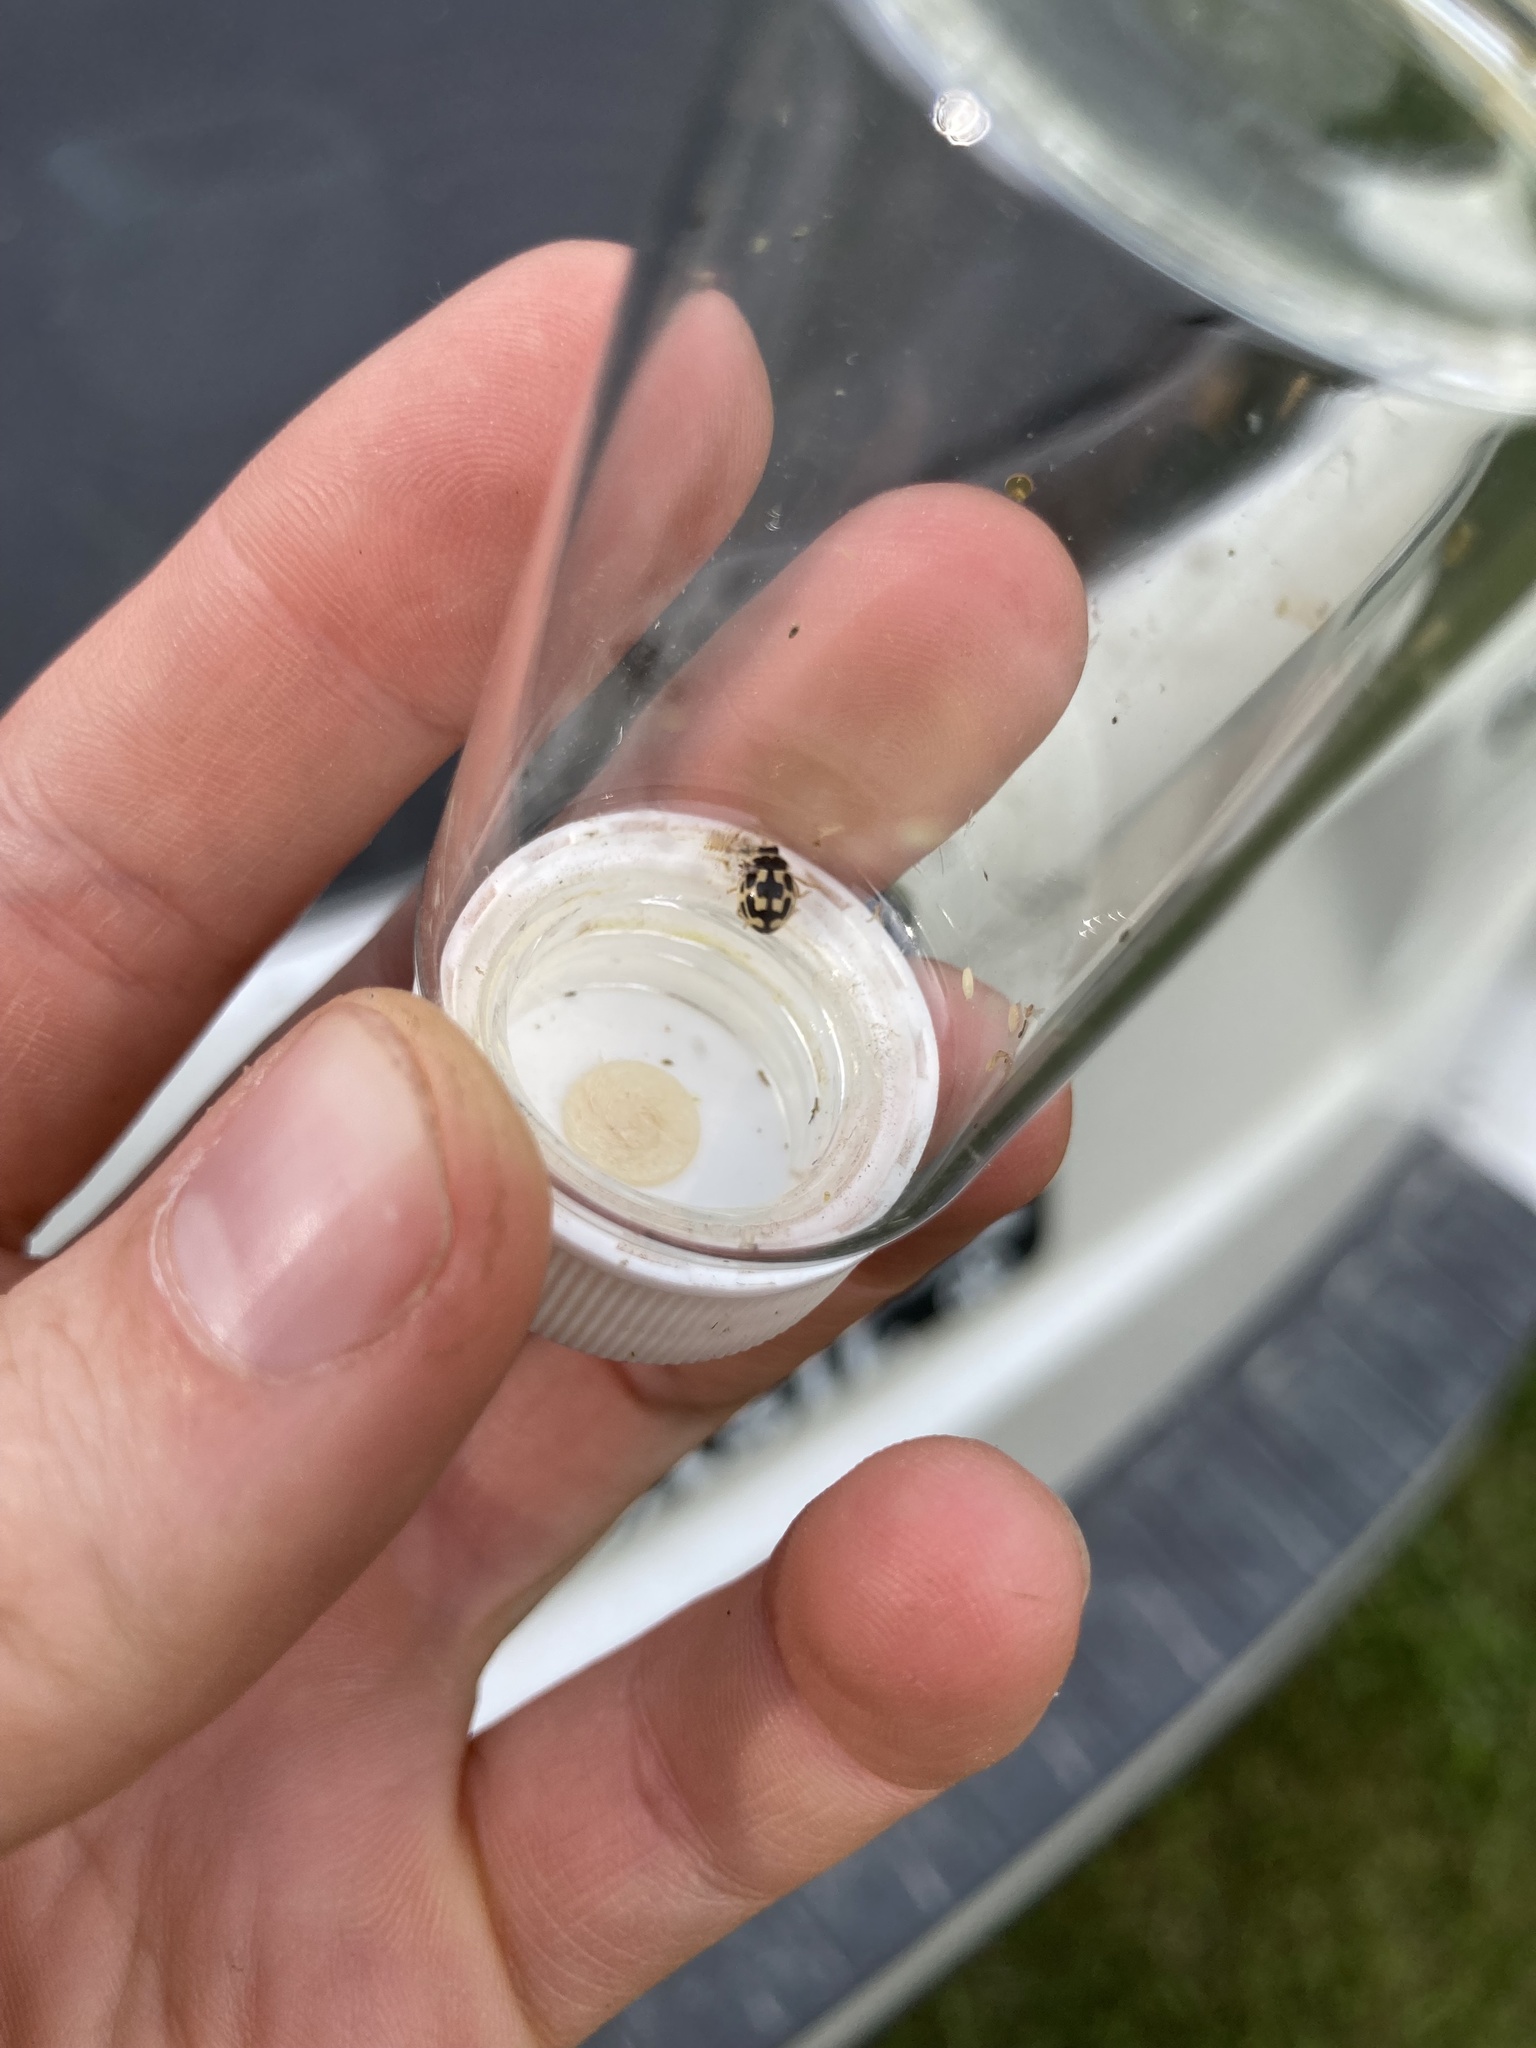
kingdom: Animalia
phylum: Arthropoda
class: Insecta
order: Coleoptera
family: Coccinellidae
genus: Propylaea
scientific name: Propylaea quatuordecimpunctata
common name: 14-spotted ladybird beetle
